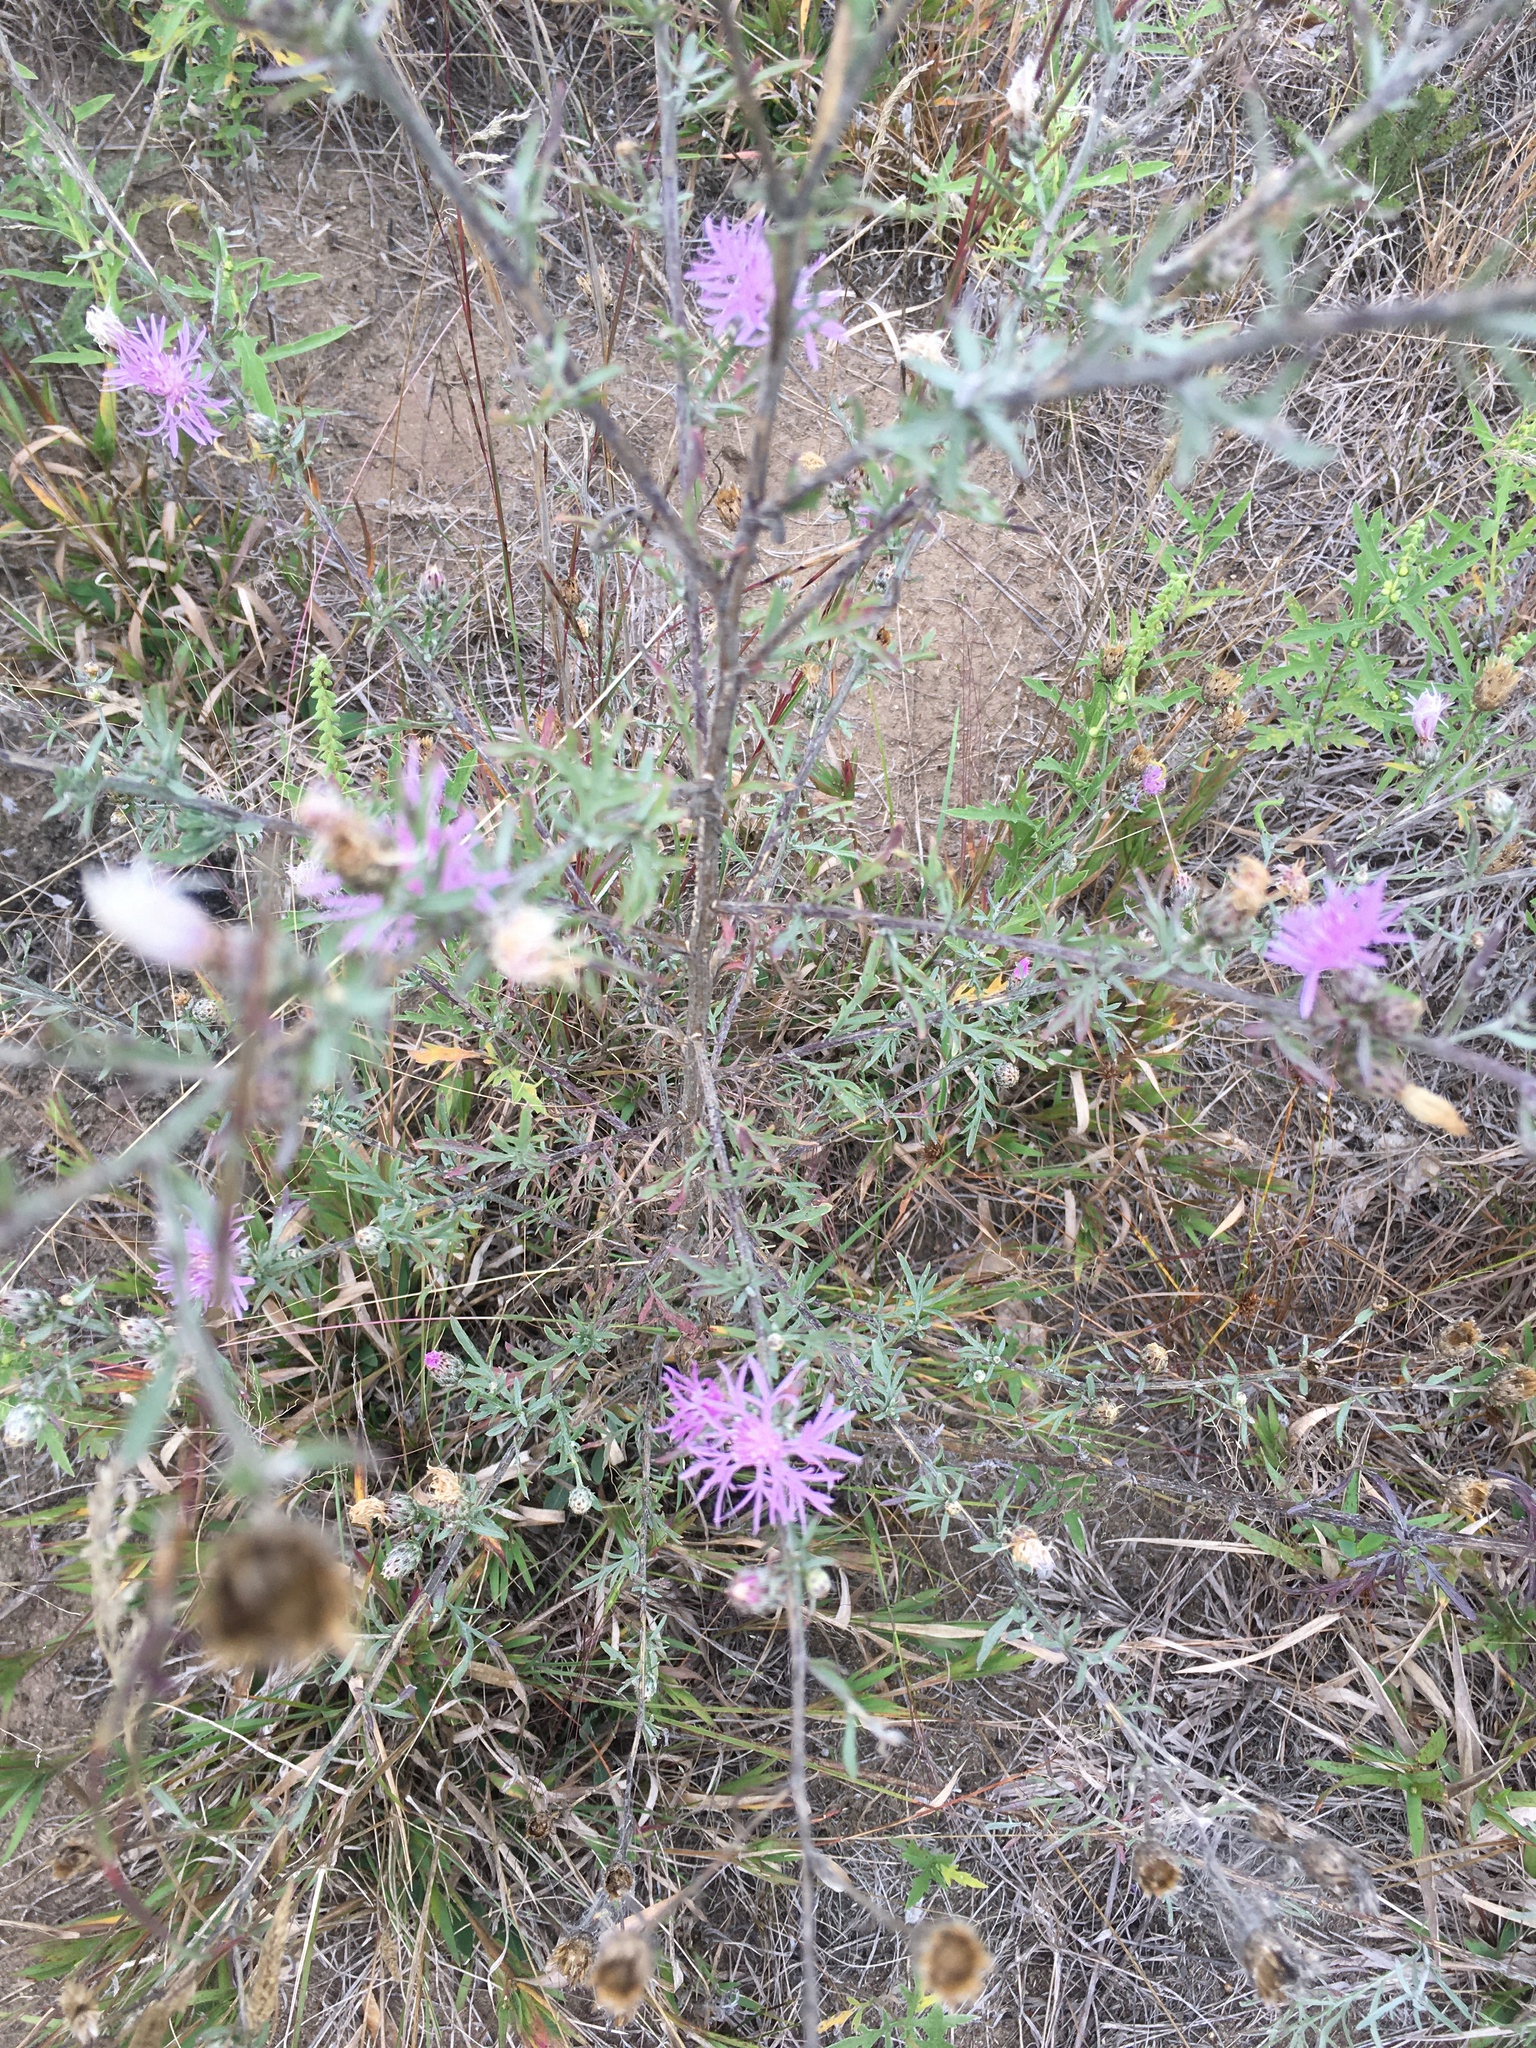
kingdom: Plantae
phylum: Tracheophyta
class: Magnoliopsida
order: Asterales
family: Asteraceae
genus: Centaurea
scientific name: Centaurea stoebe
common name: Spotted knapweed
